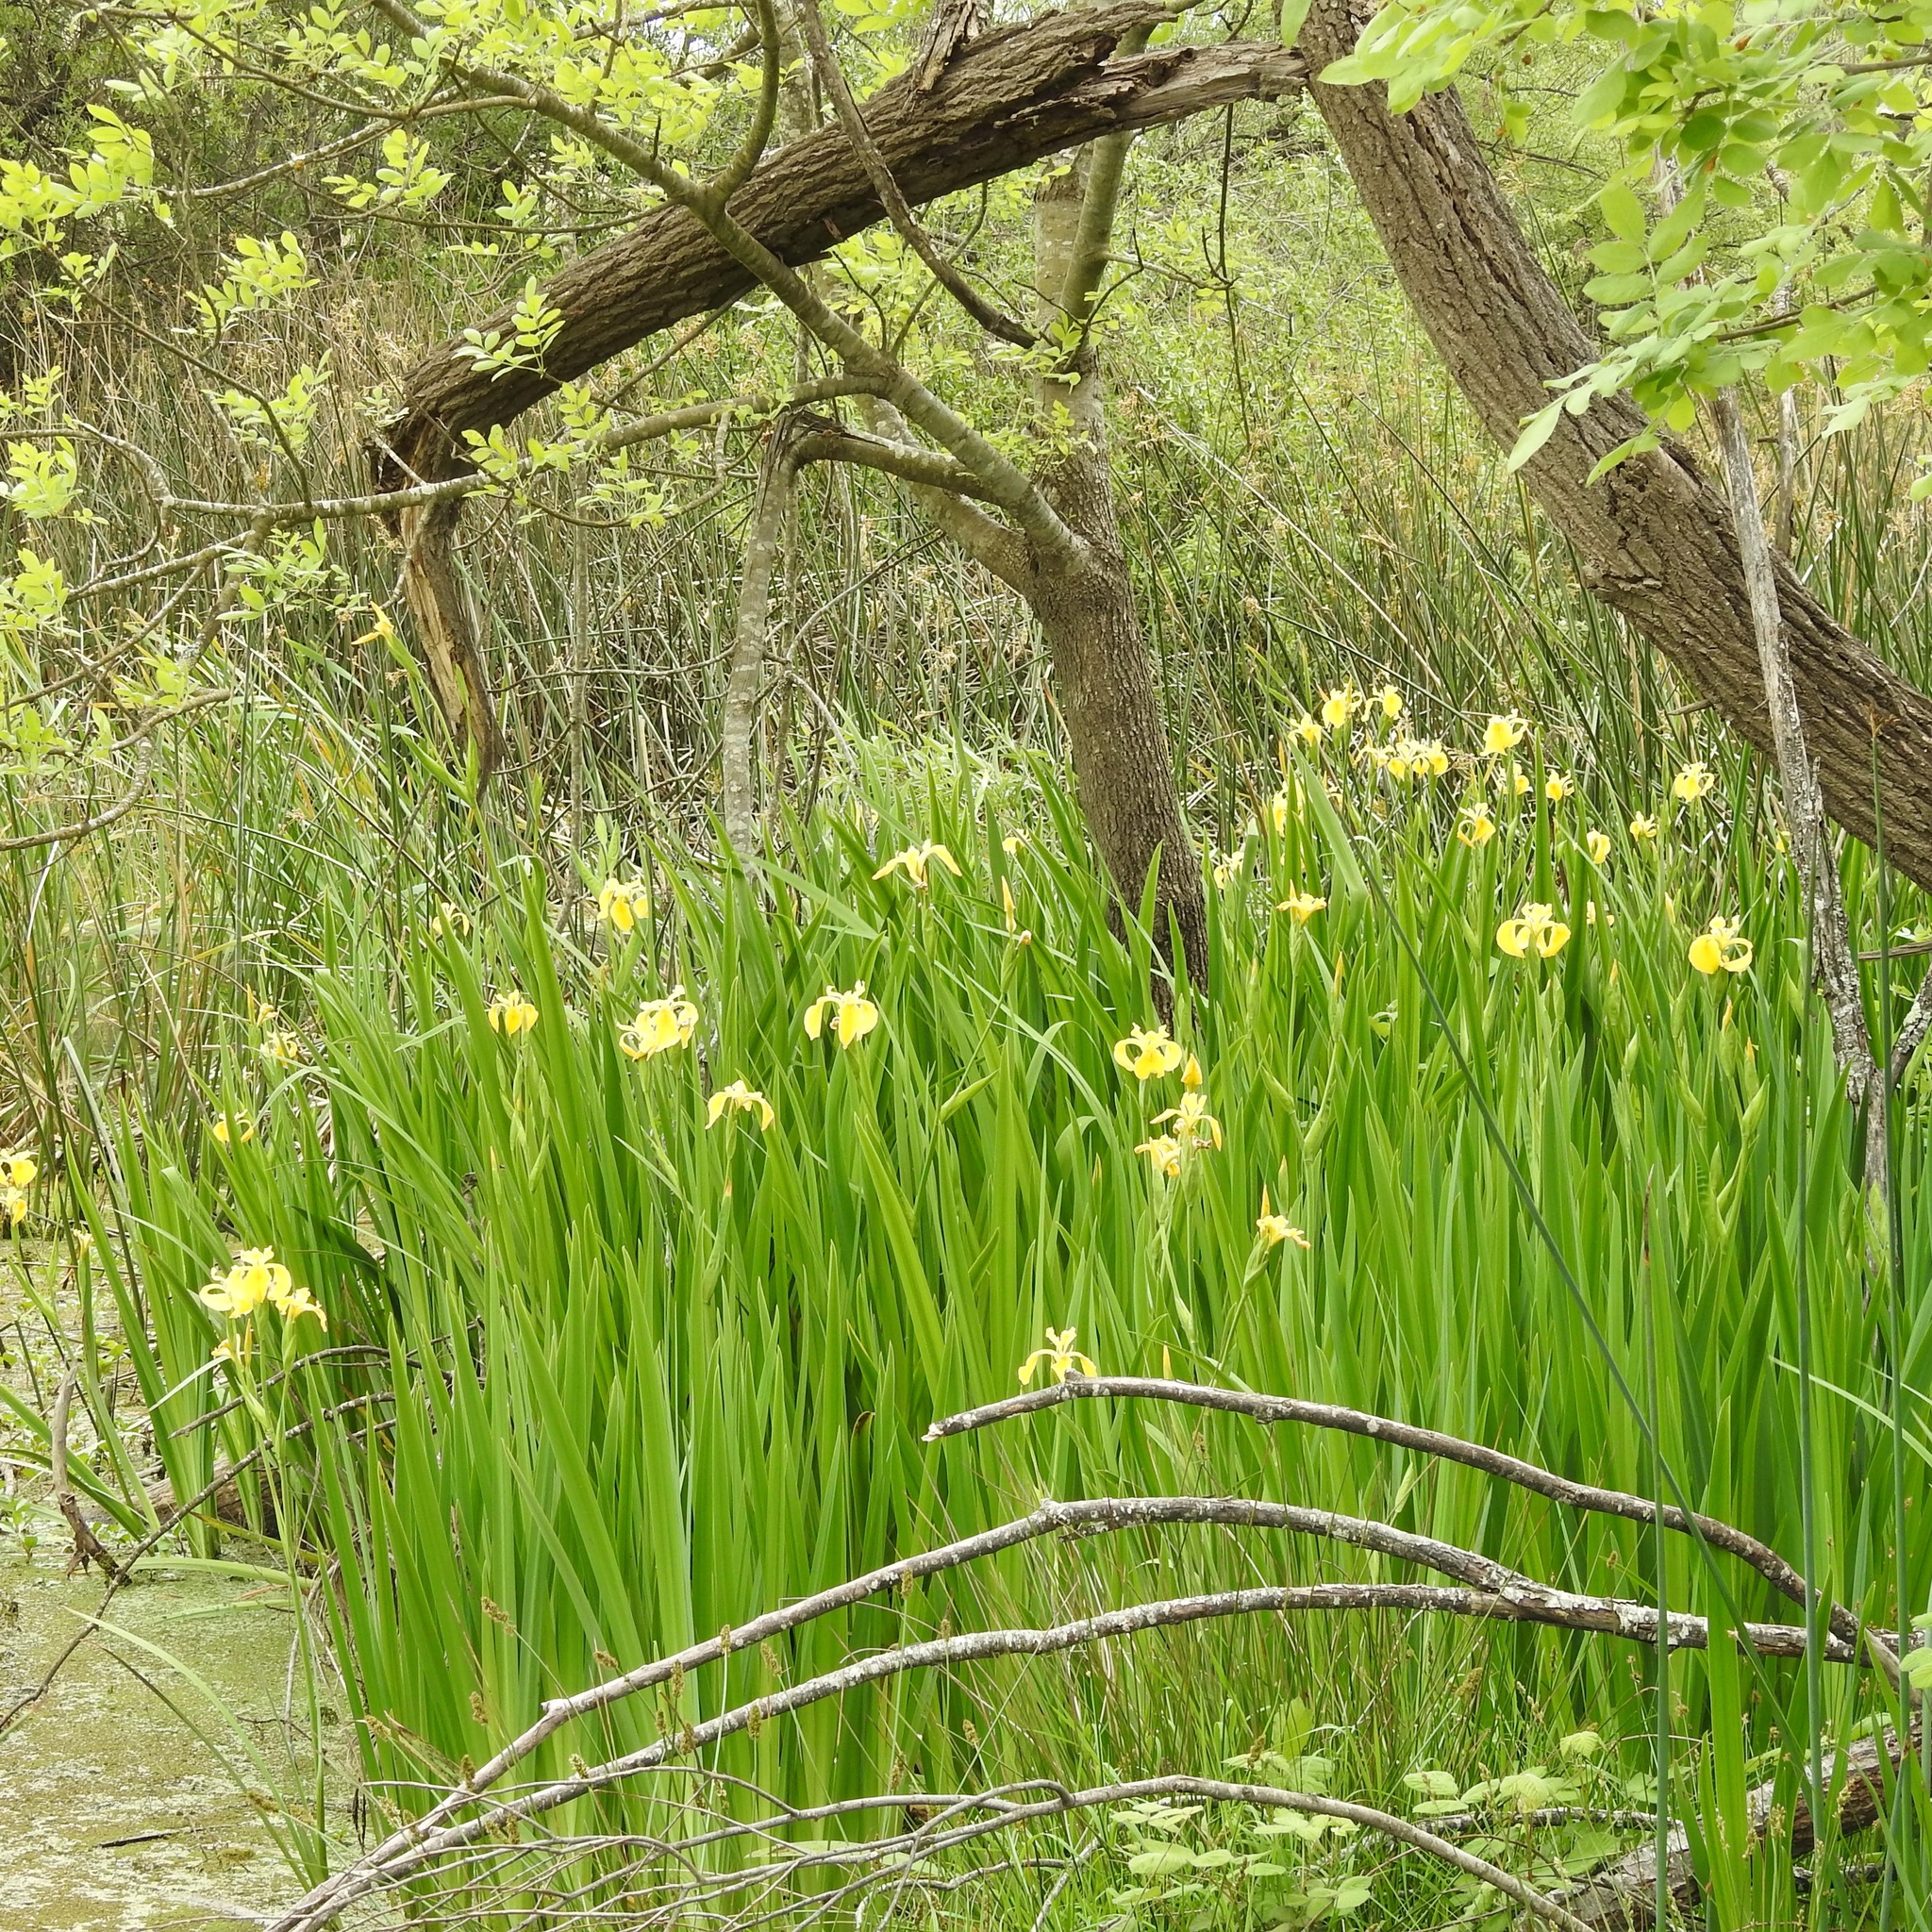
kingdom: Plantae
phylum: Tracheophyta
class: Liliopsida
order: Asparagales
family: Iridaceae
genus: Iris
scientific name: Iris pseudacorus
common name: Yellow flag
